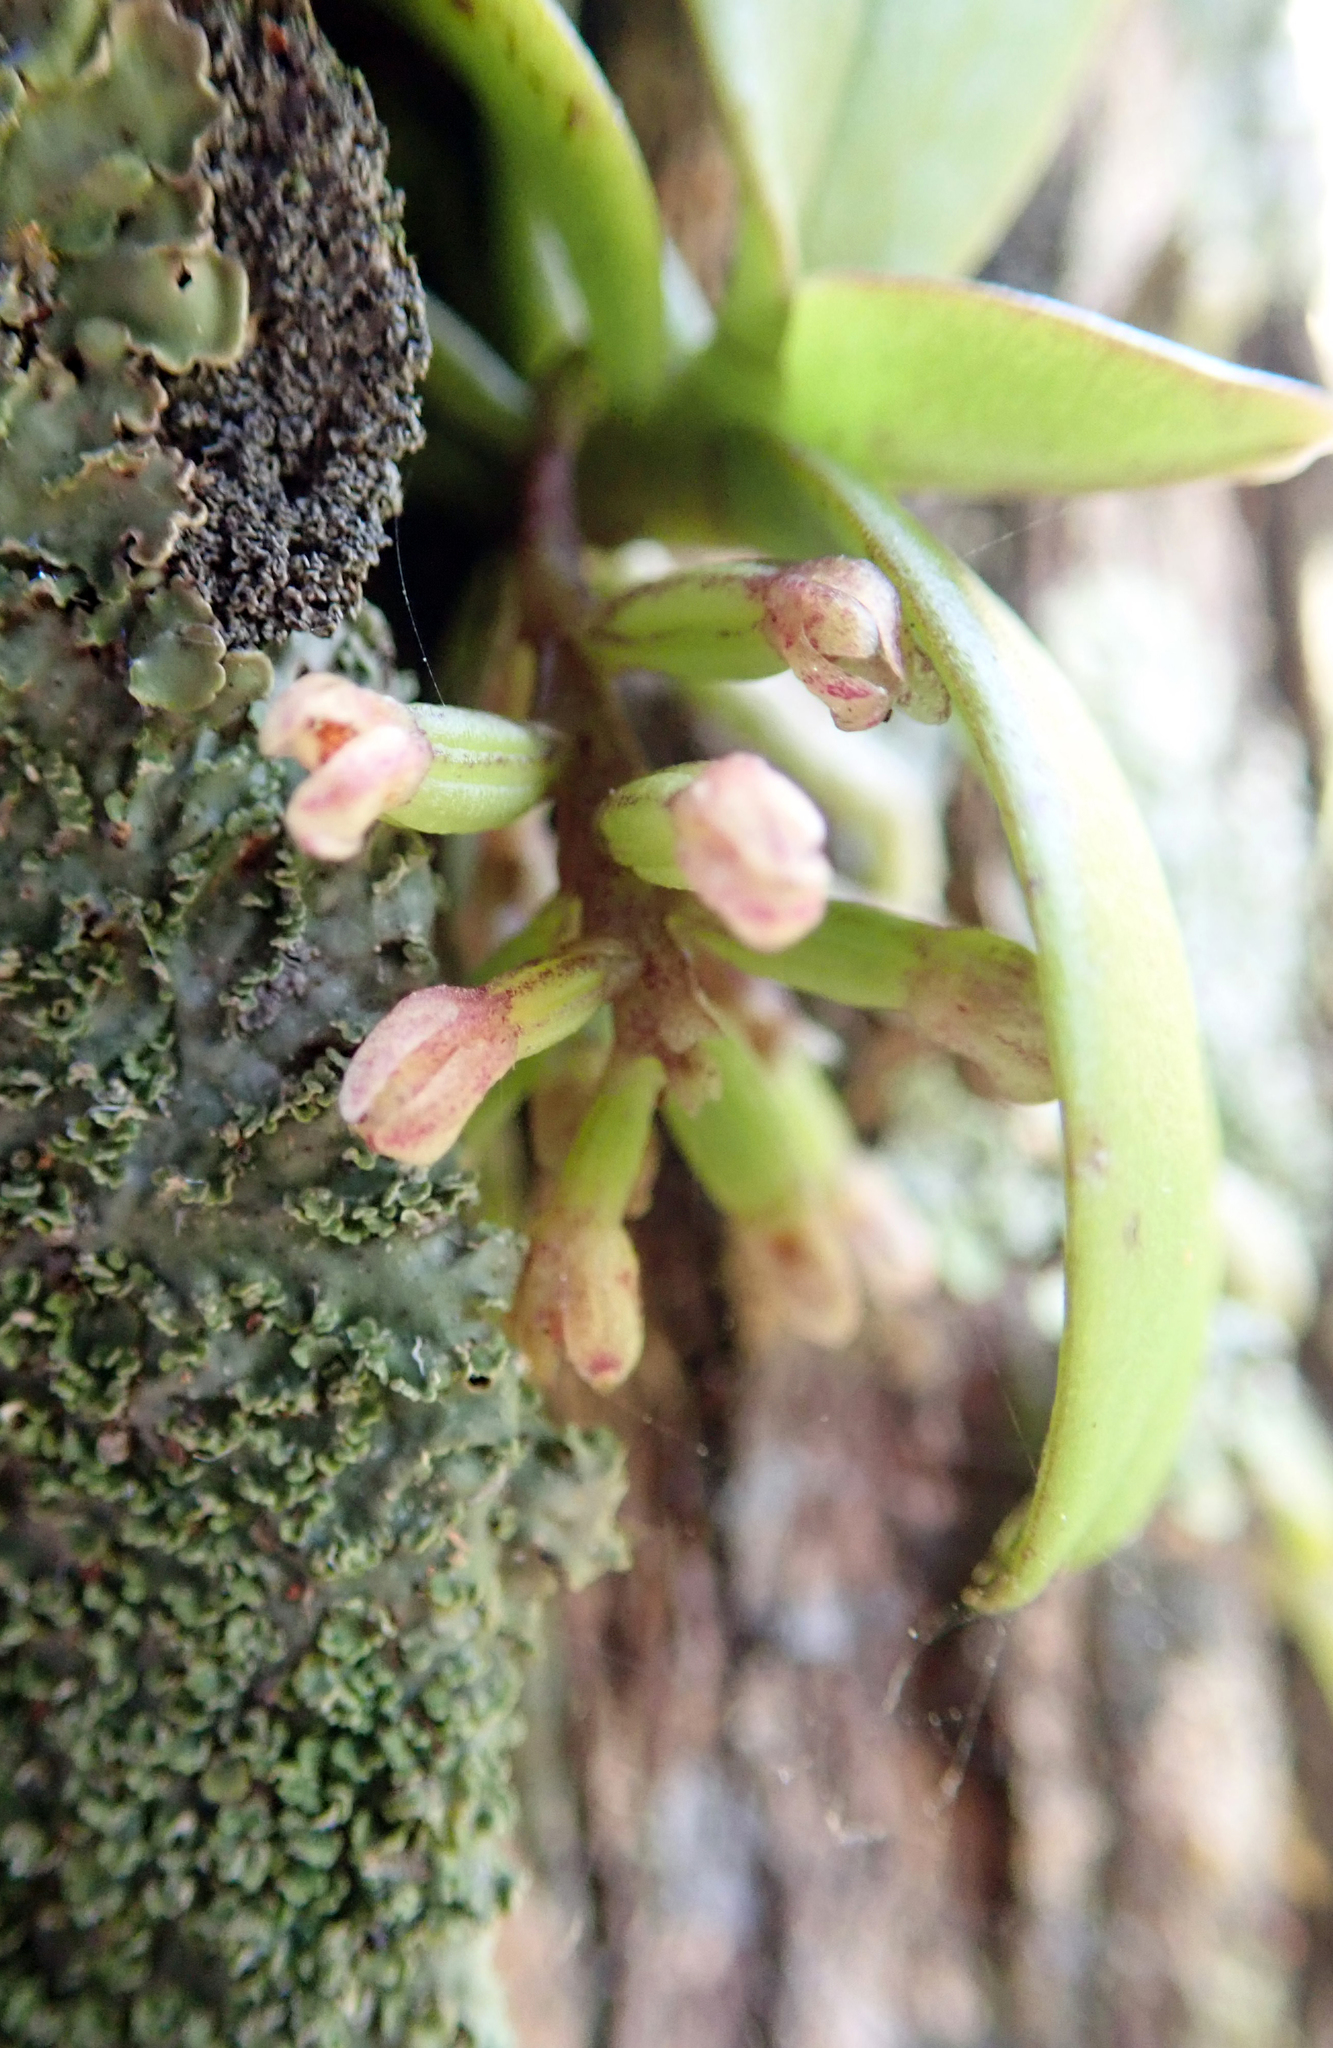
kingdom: Plantae
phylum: Tracheophyta
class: Liliopsida
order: Asparagales
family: Orchidaceae
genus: Drymoanthus
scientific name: Drymoanthus adversus
